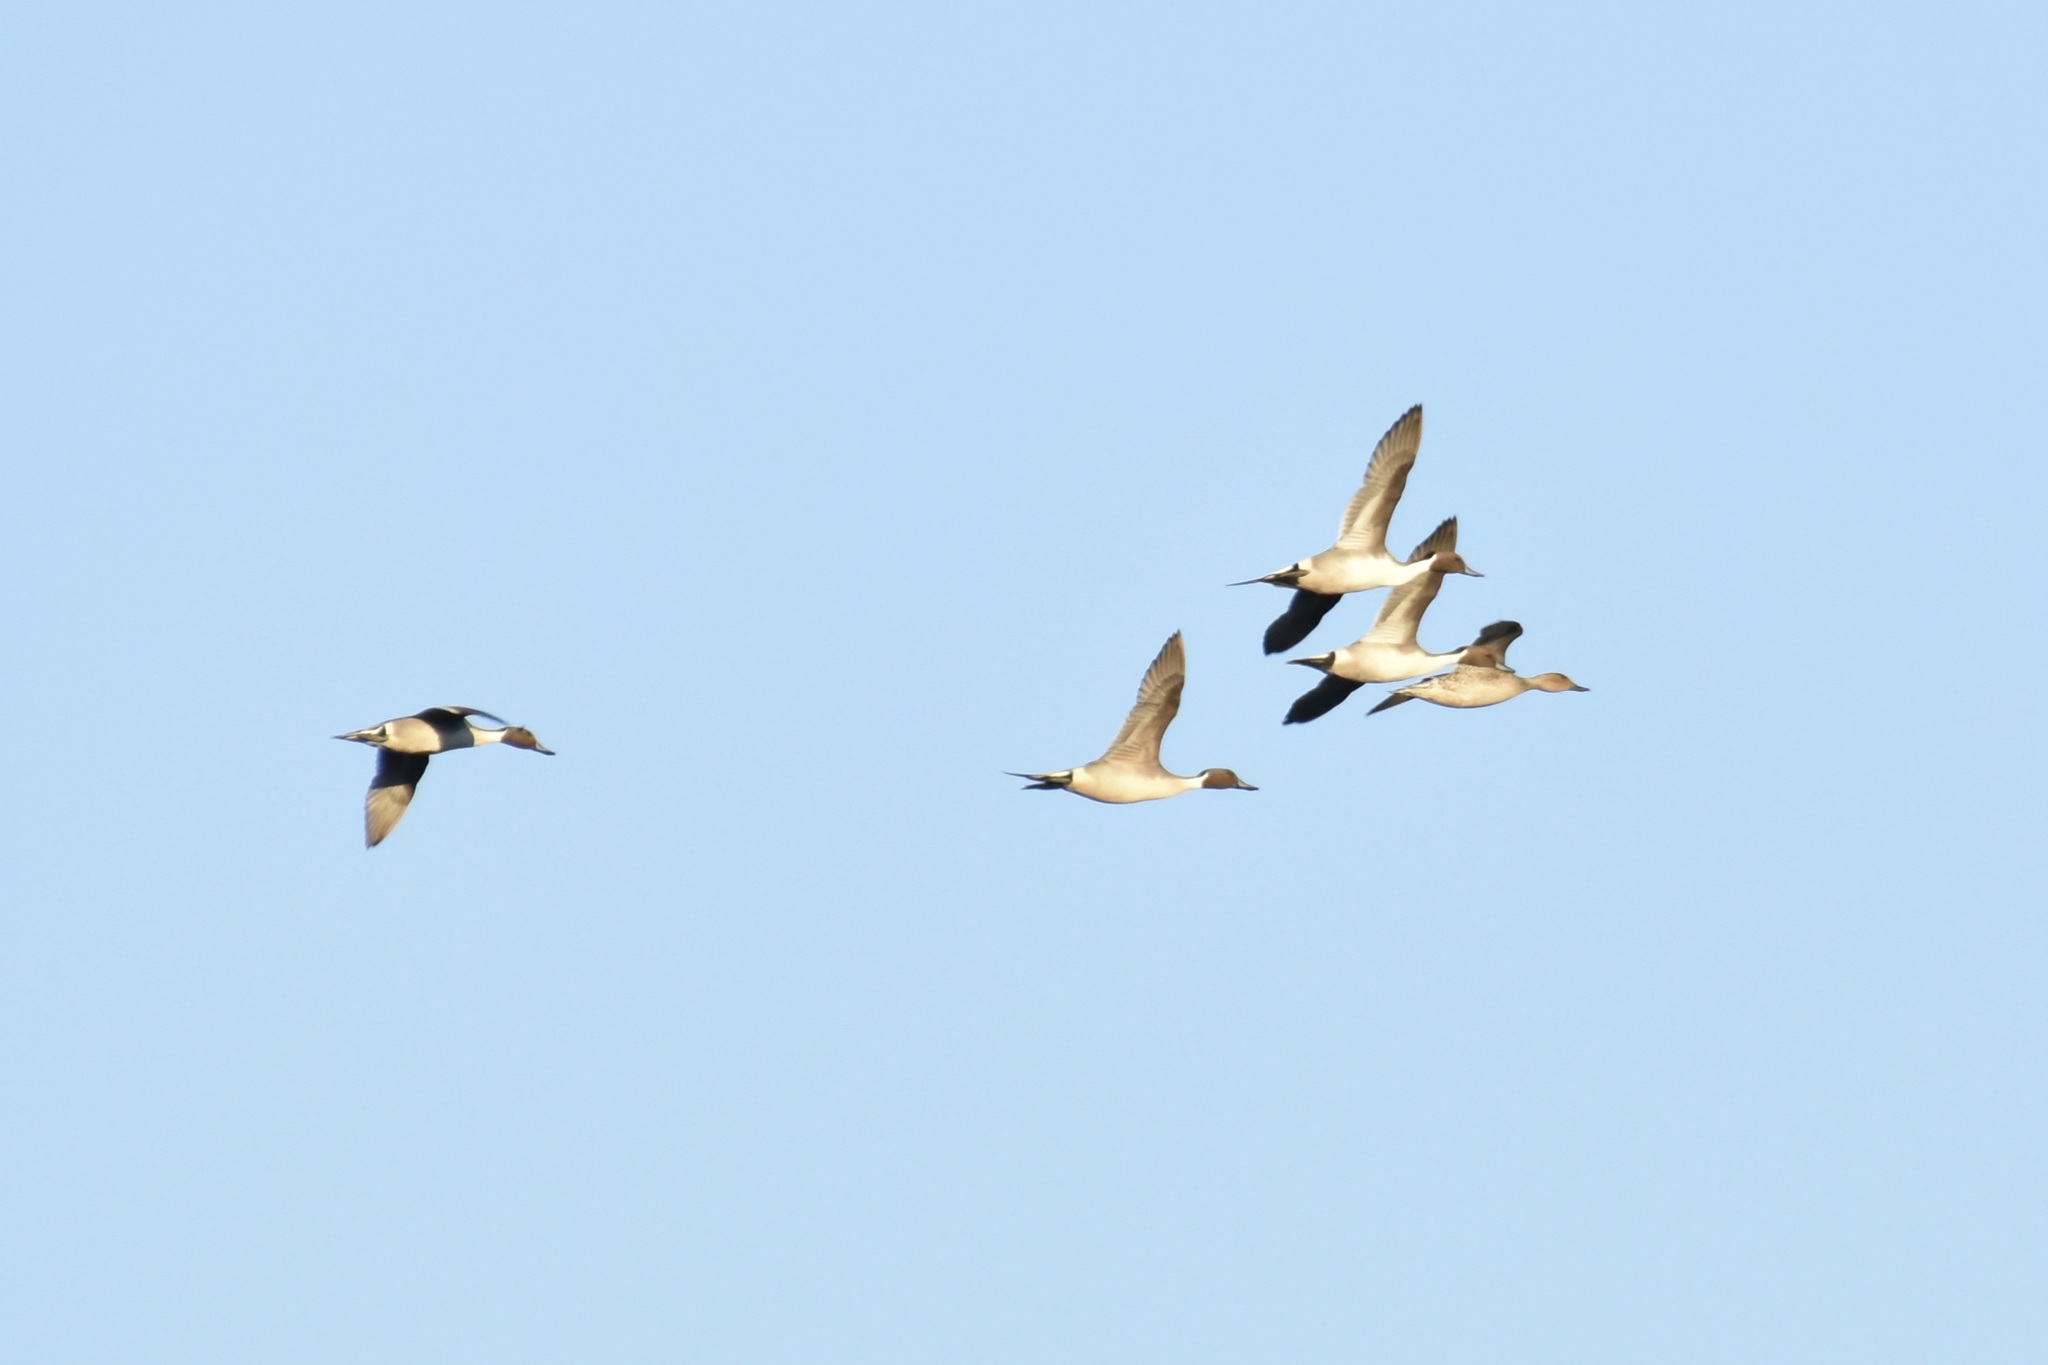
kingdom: Animalia
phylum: Chordata
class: Aves
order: Anseriformes
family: Anatidae
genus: Anas
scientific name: Anas acuta
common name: Northern pintail
